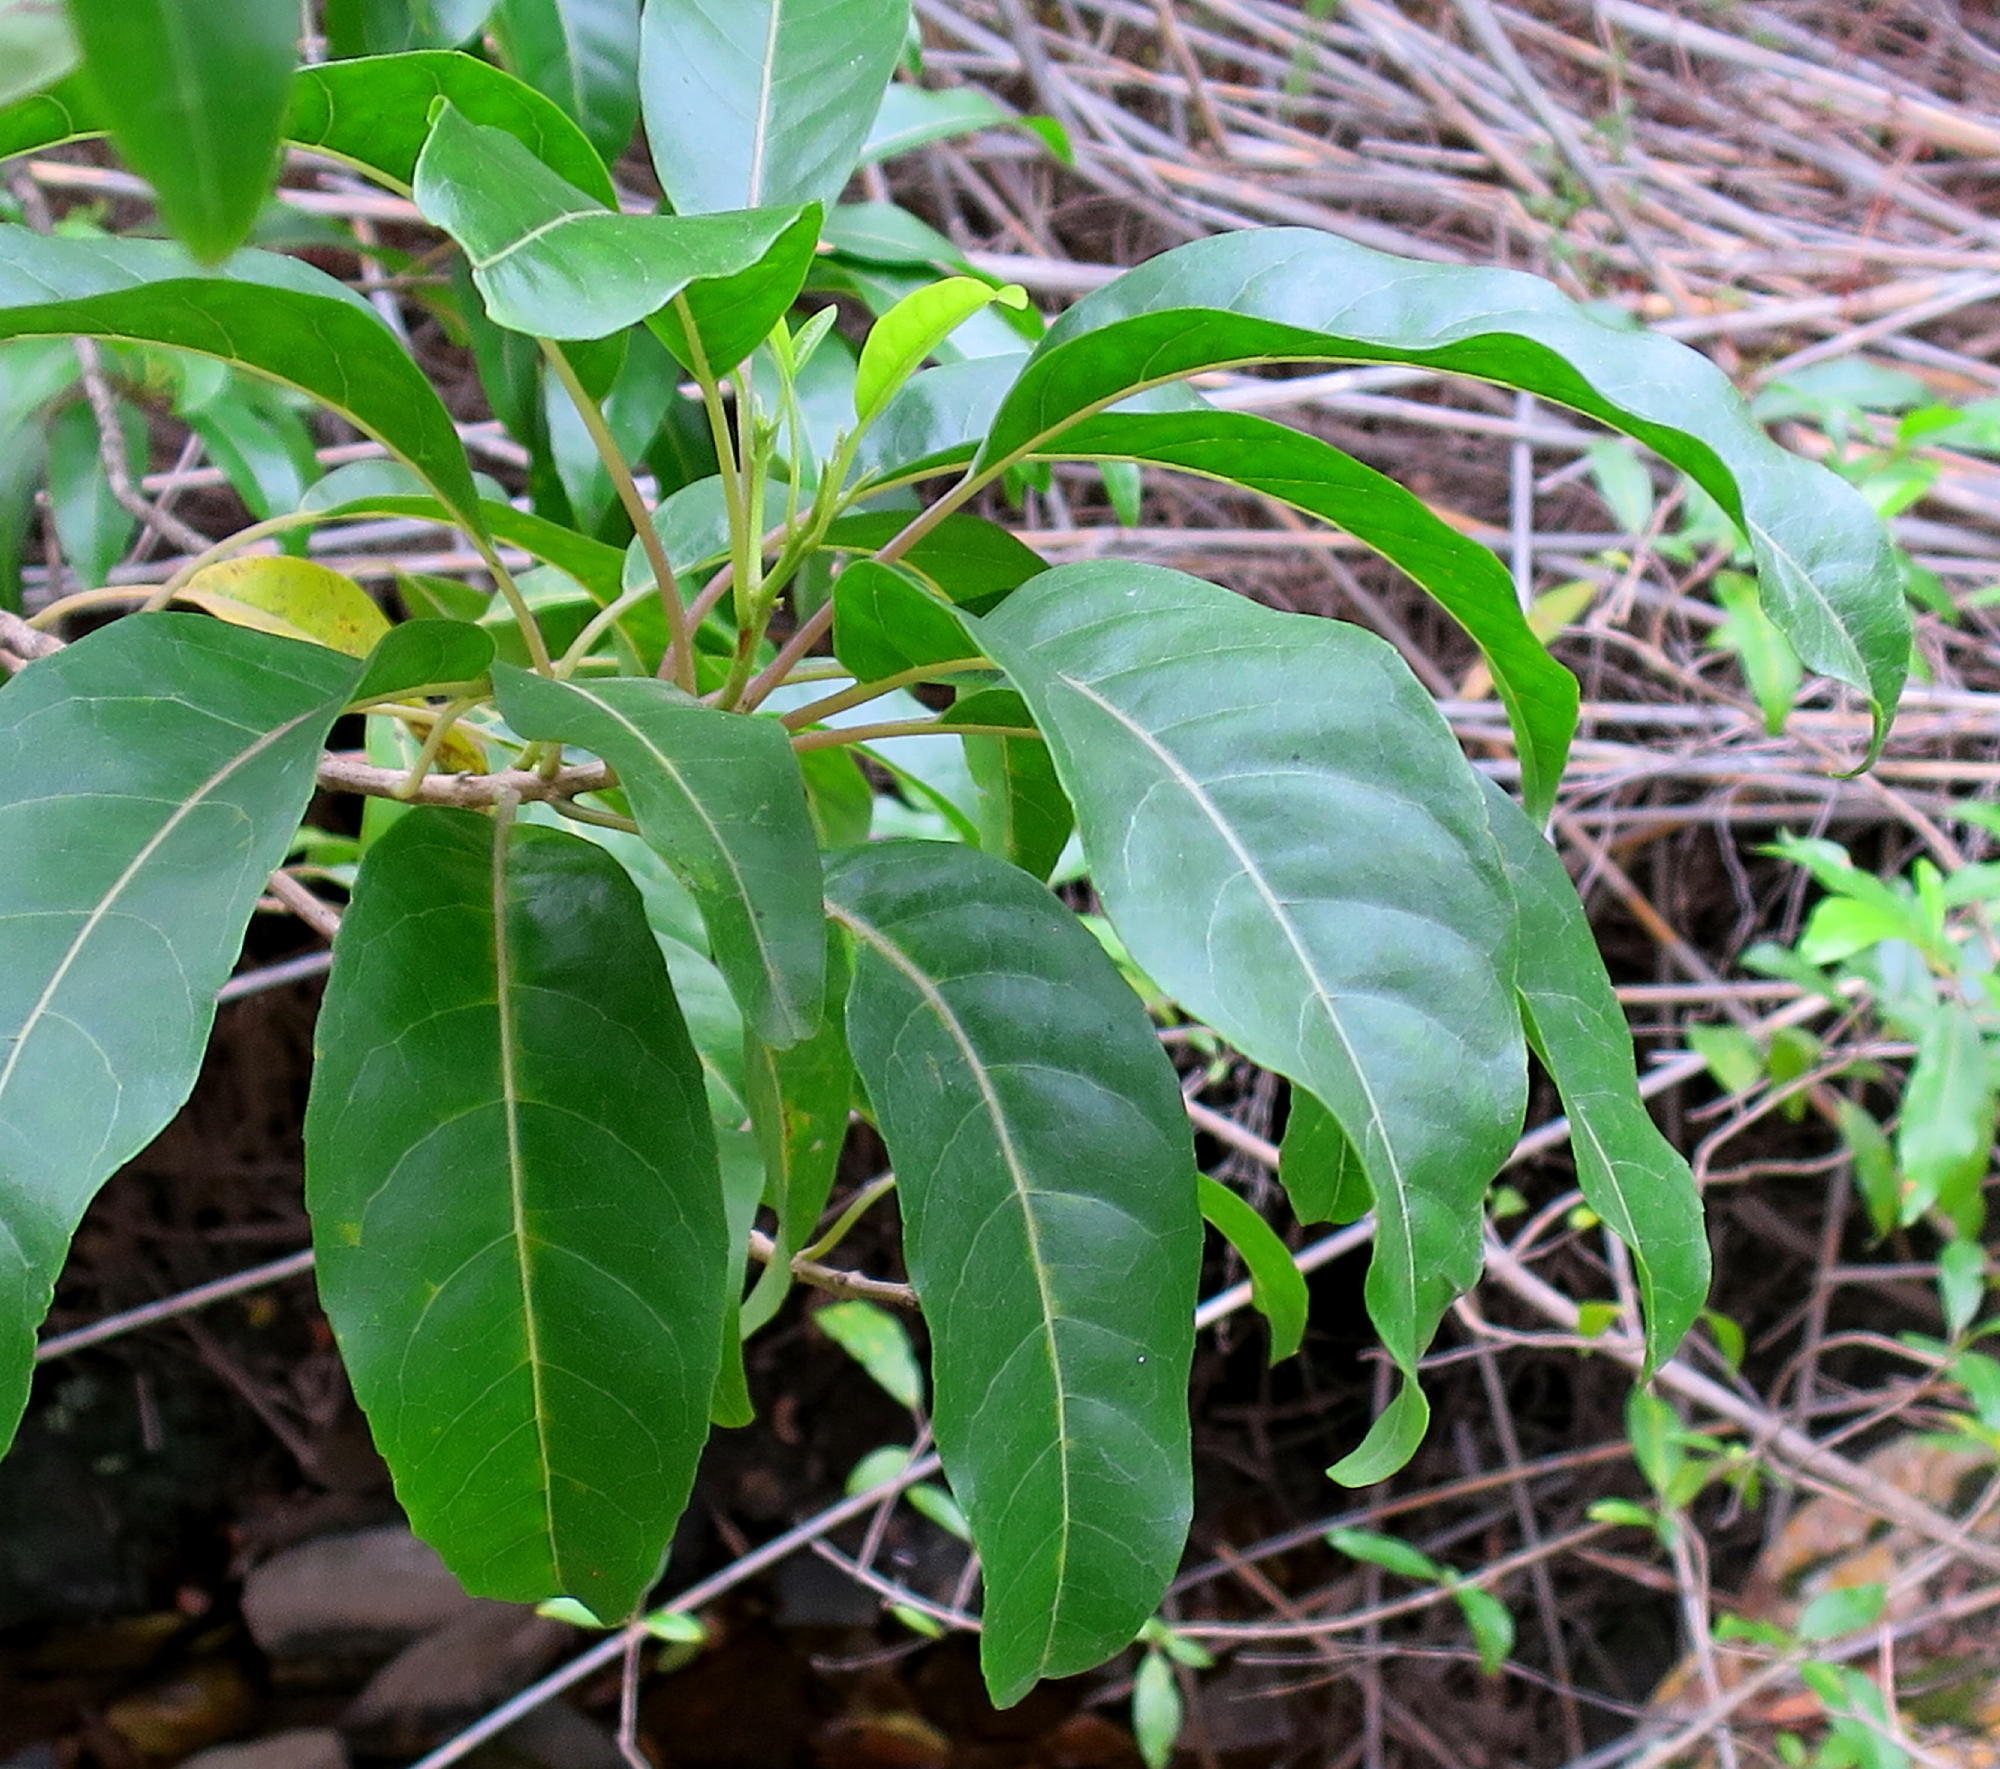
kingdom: Plantae
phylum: Tracheophyta
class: Magnoliopsida
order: Lamiales
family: Stilbaceae
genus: Nuxia
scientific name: Nuxia floribunda
